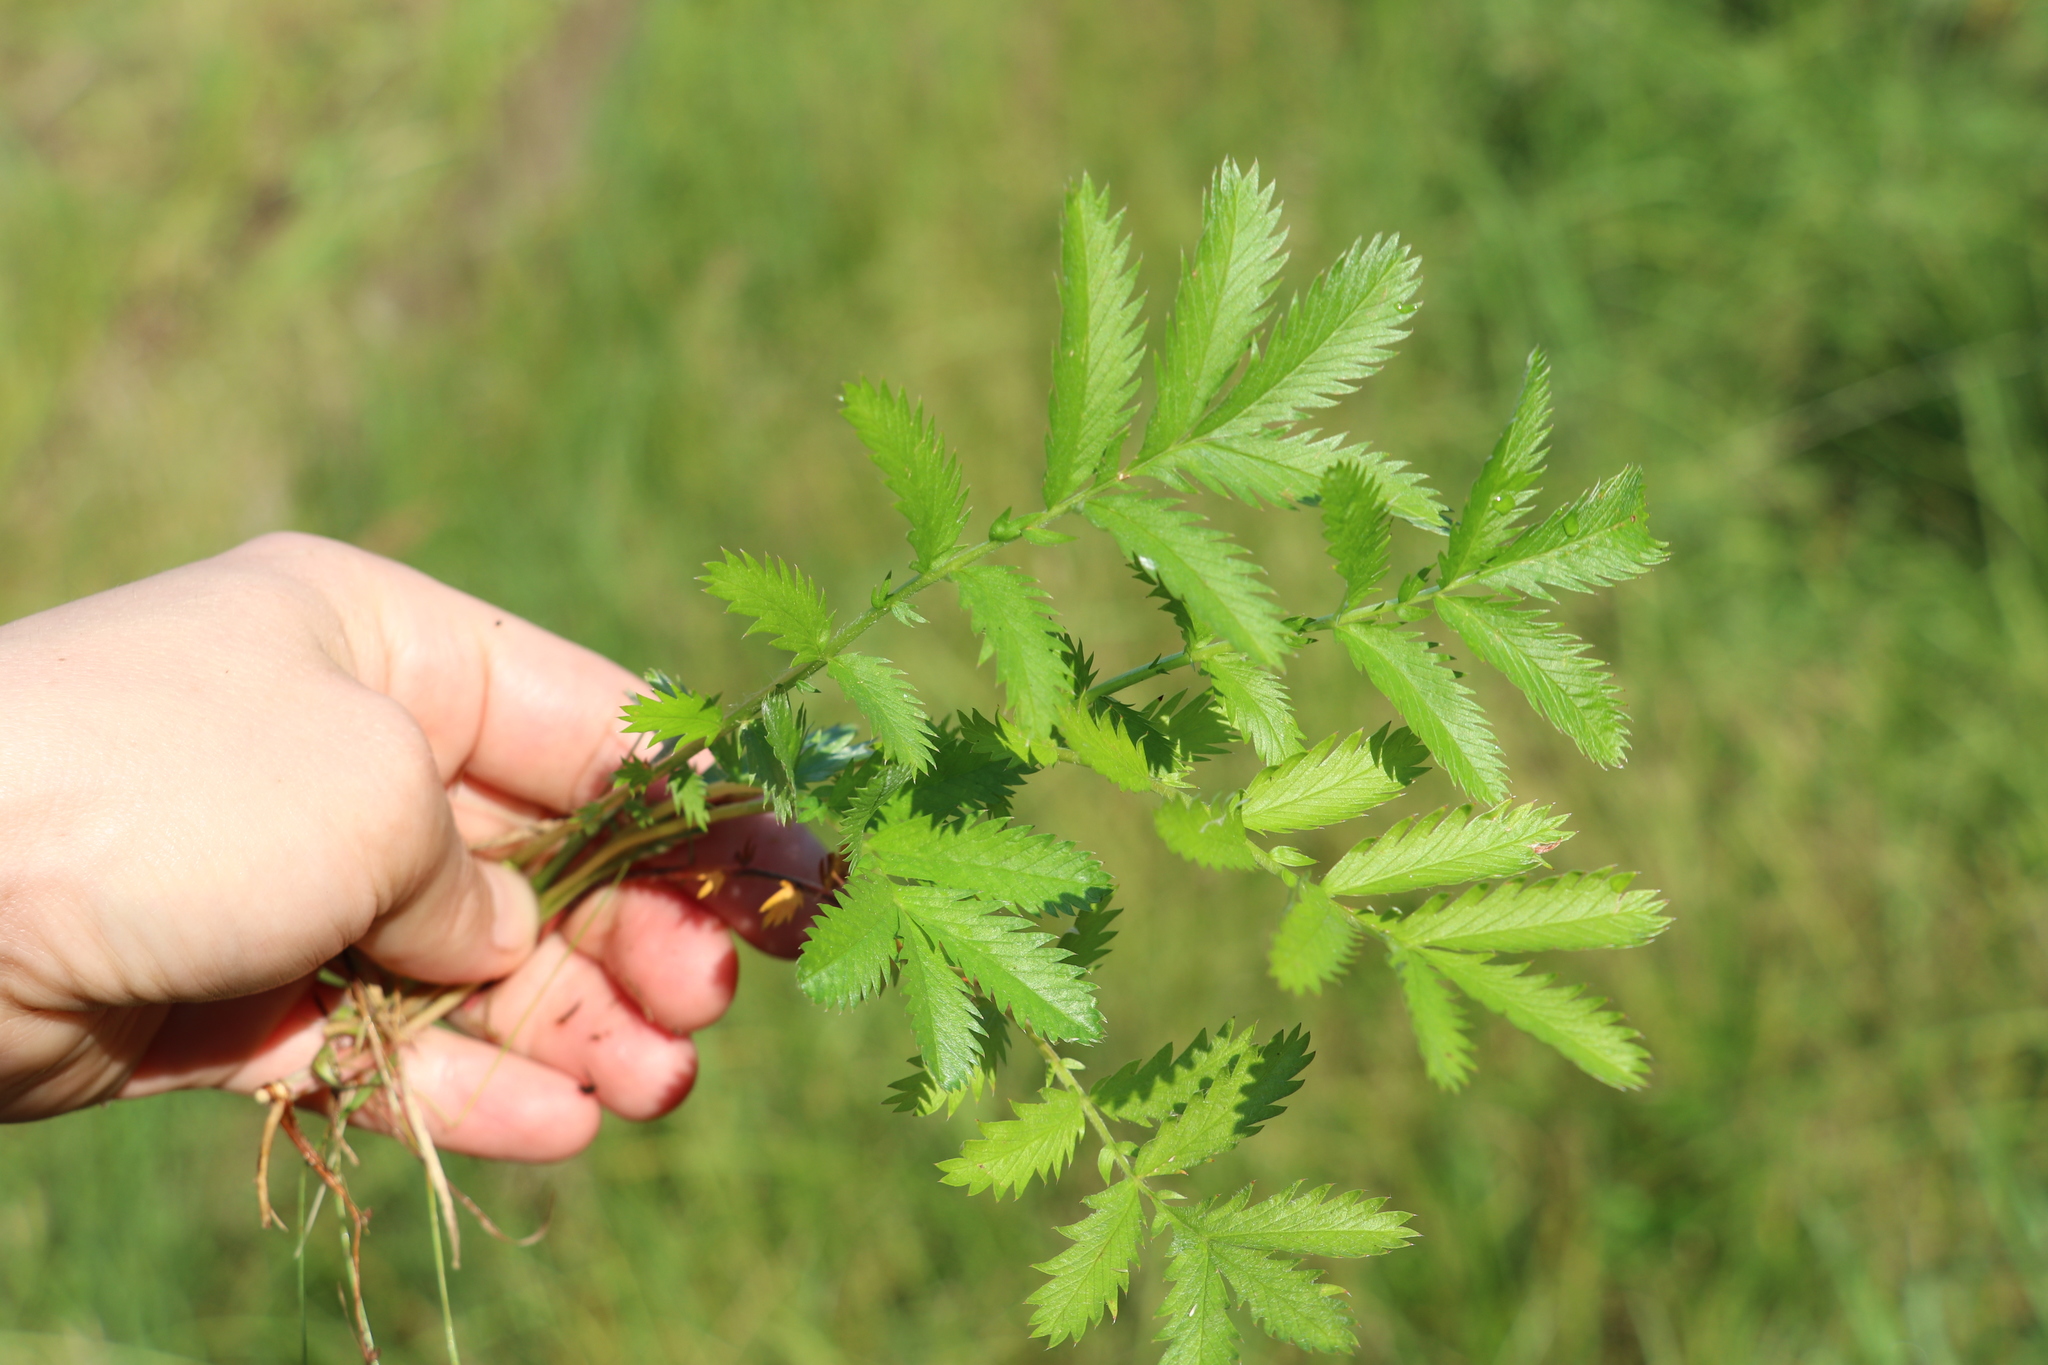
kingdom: Plantae
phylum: Tracheophyta
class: Magnoliopsida
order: Rosales
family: Rosaceae
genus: Argentina
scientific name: Argentina anserina
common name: Common silverweed
